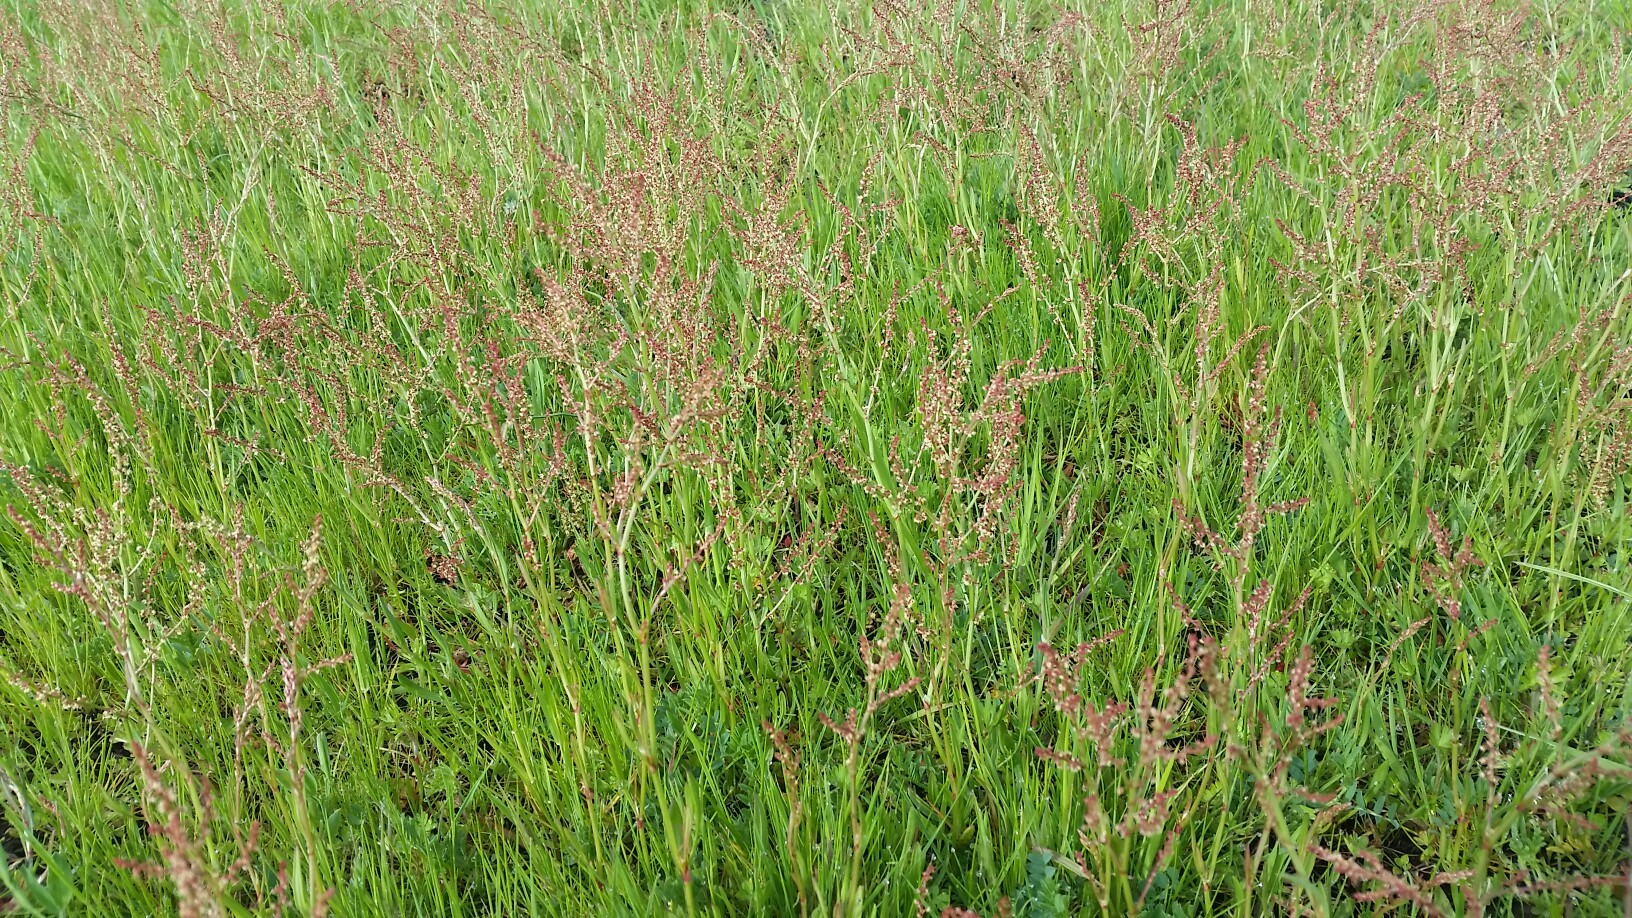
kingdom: Plantae
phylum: Tracheophyta
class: Magnoliopsida
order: Caryophyllales
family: Polygonaceae
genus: Rumex
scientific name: Rumex acetosella
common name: Common sheep sorrel
